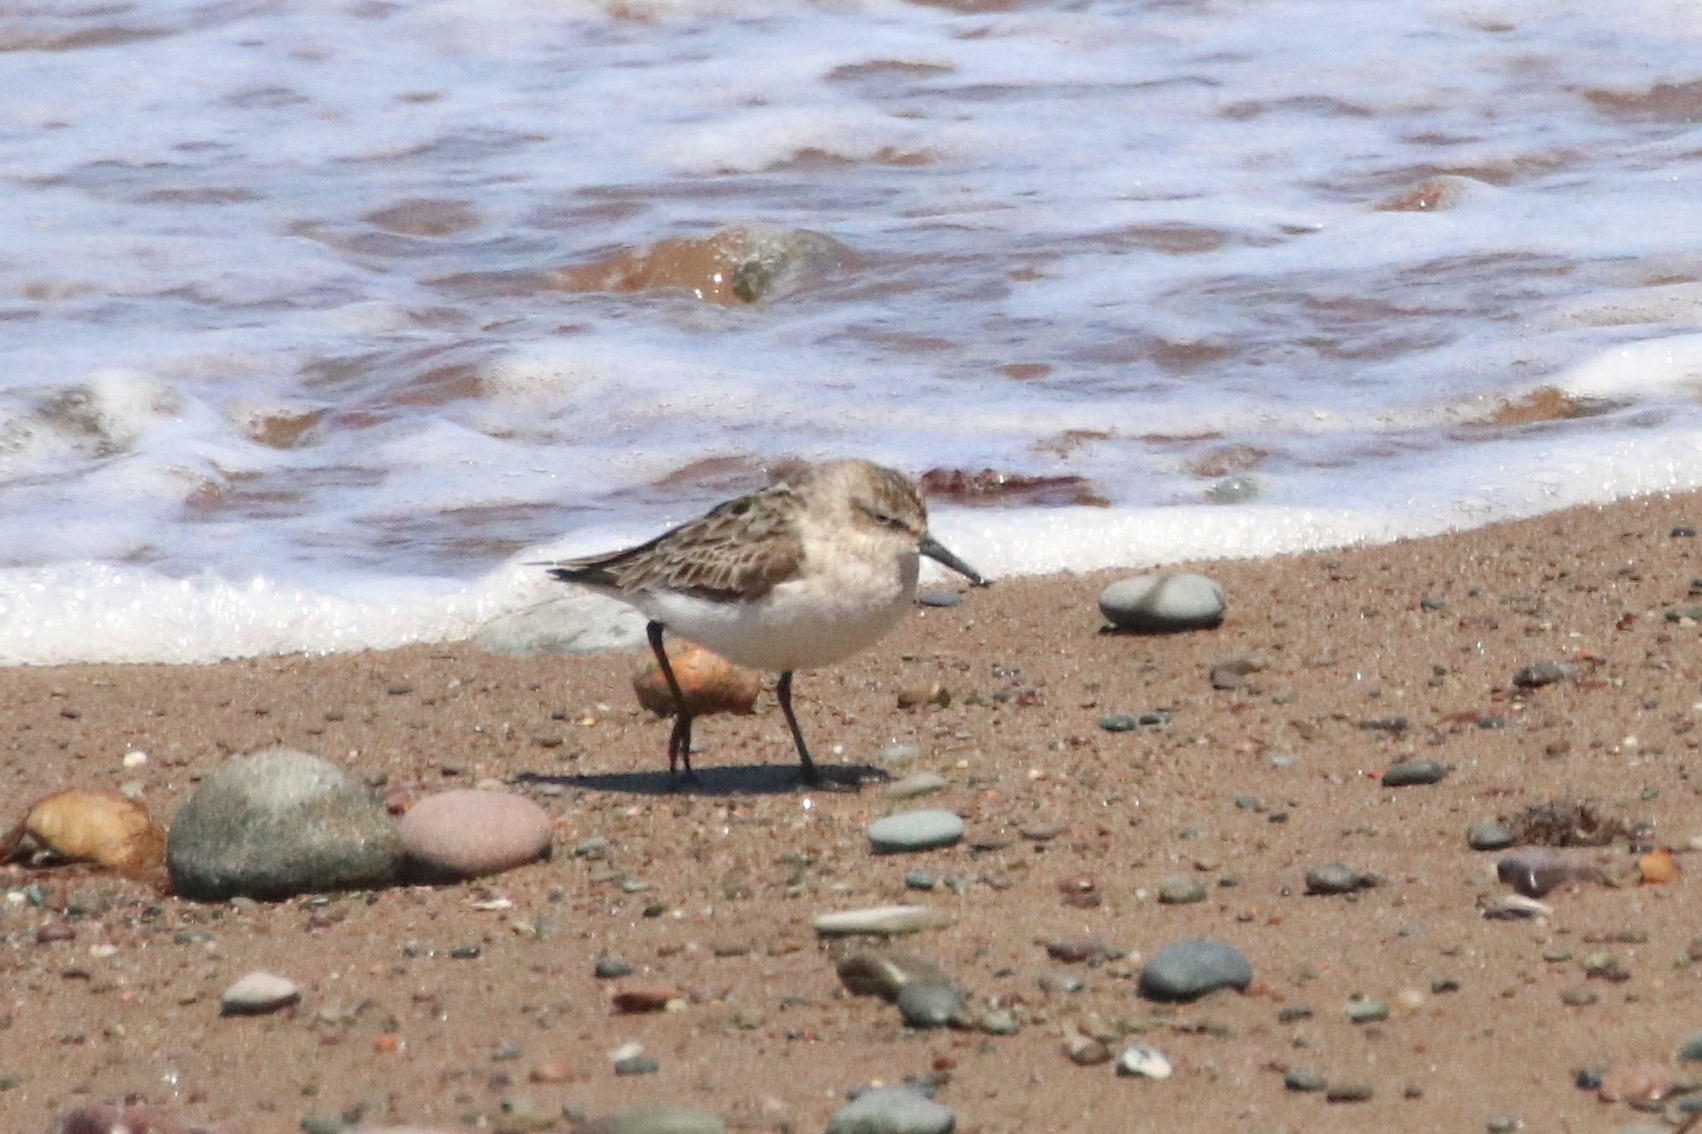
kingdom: Animalia
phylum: Chordata
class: Aves
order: Charadriiformes
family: Scolopacidae
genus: Calidris
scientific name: Calidris pusilla
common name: Semipalmated sandpiper
